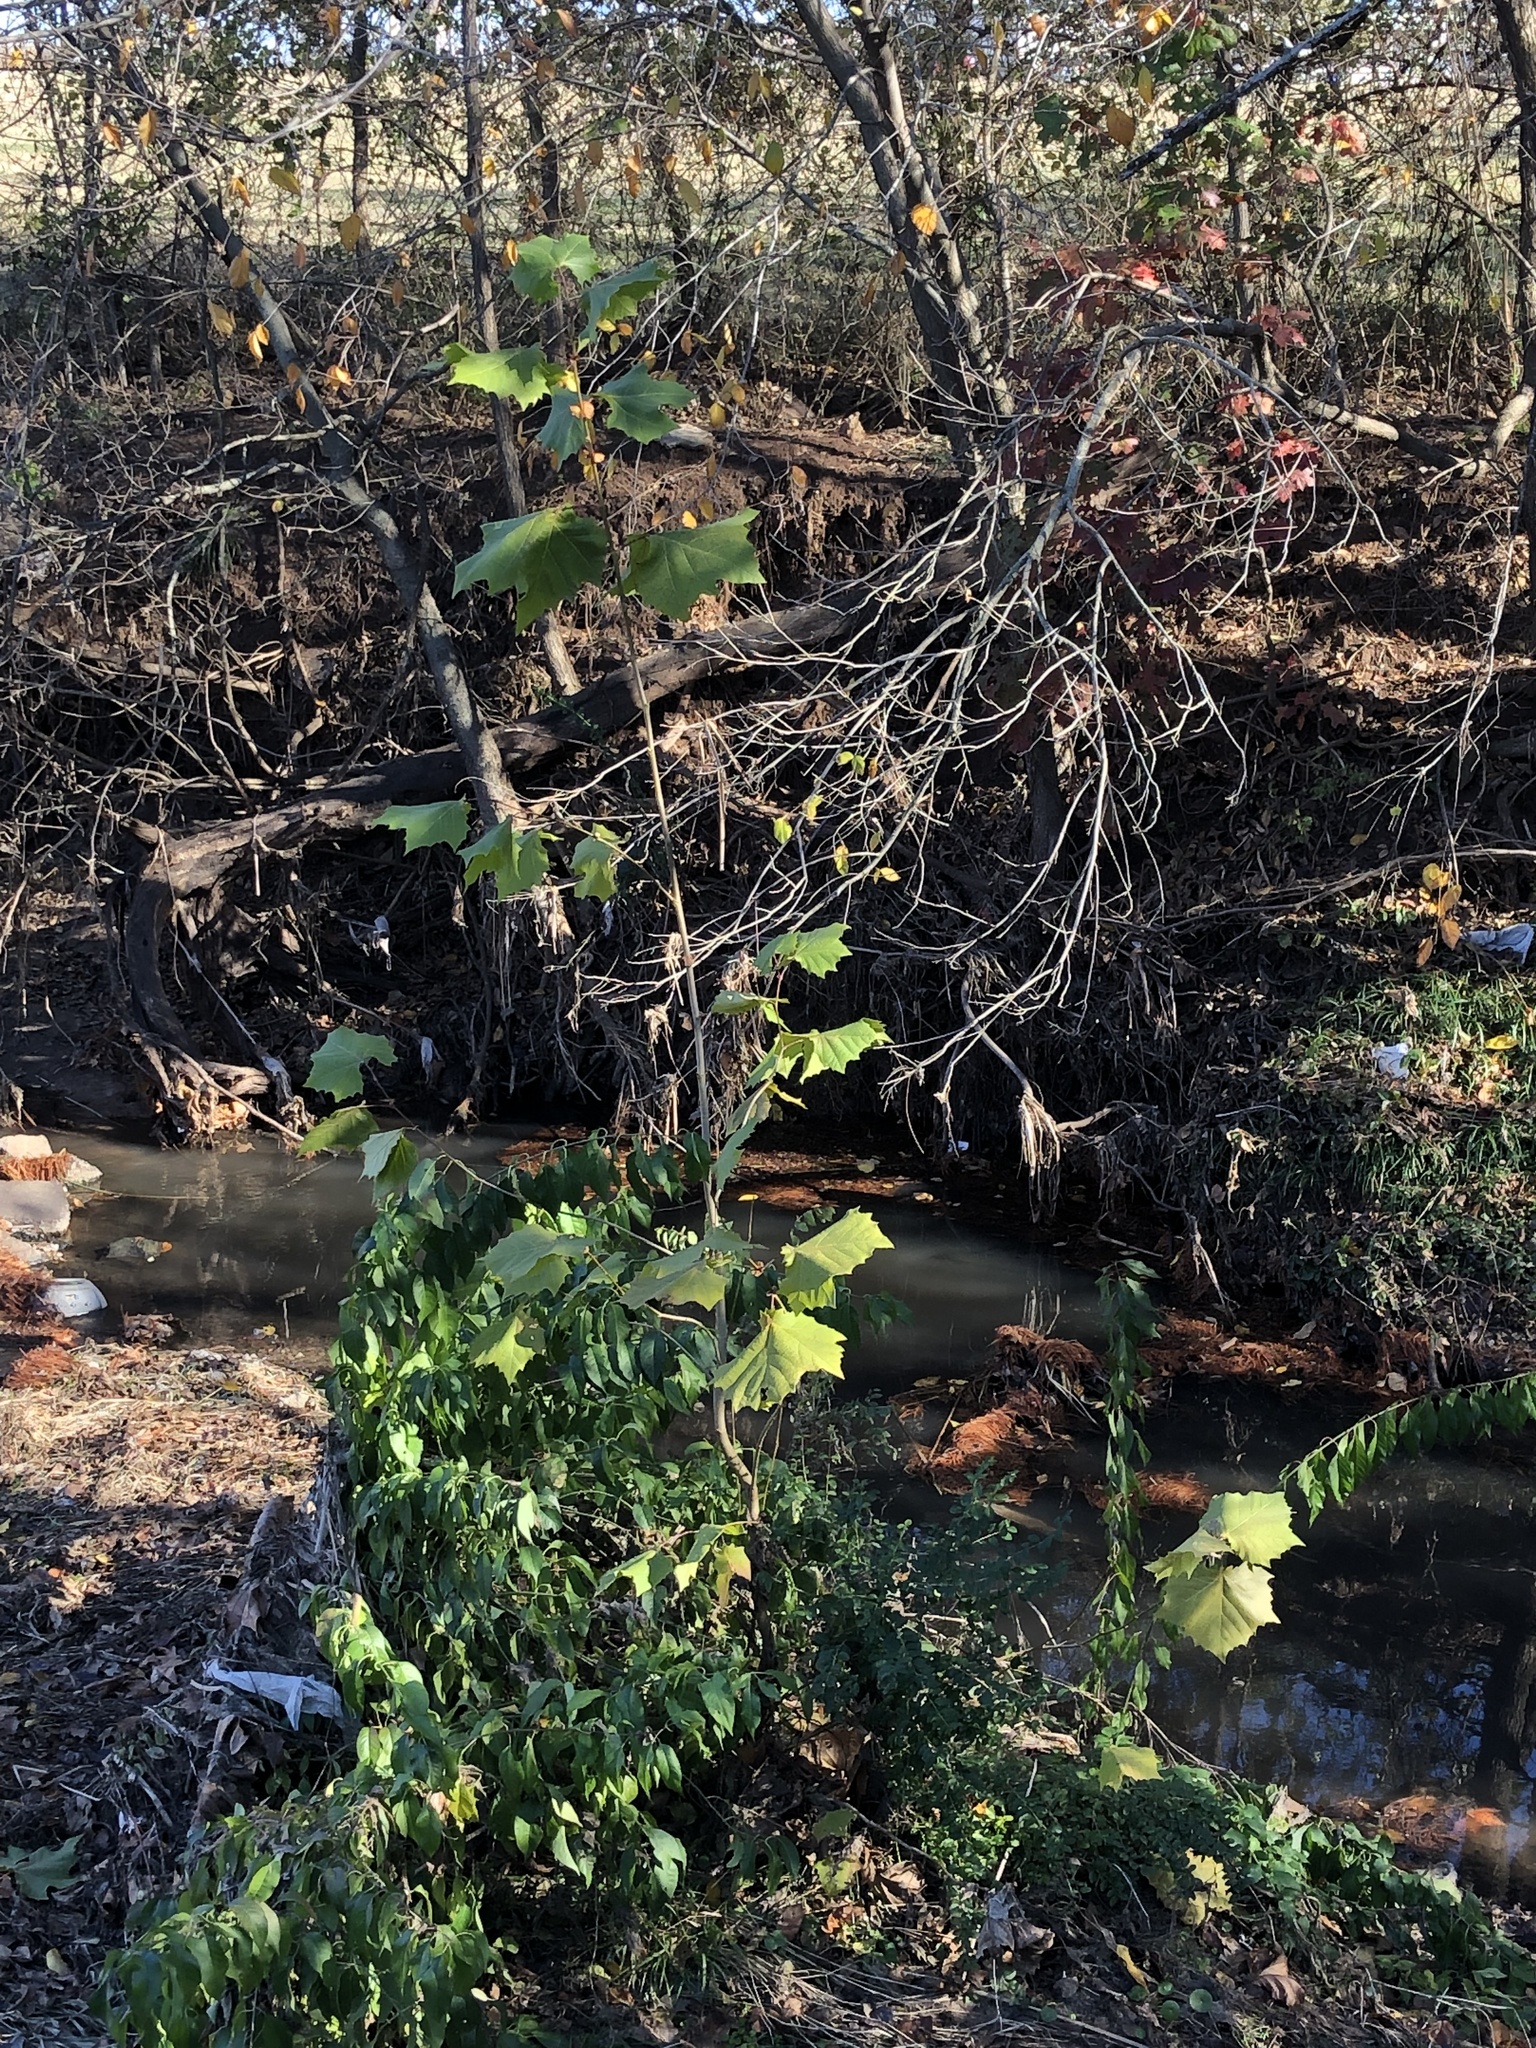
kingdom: Plantae
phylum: Tracheophyta
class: Magnoliopsida
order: Proteales
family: Platanaceae
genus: Platanus
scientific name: Platanus occidentalis
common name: American sycamore
